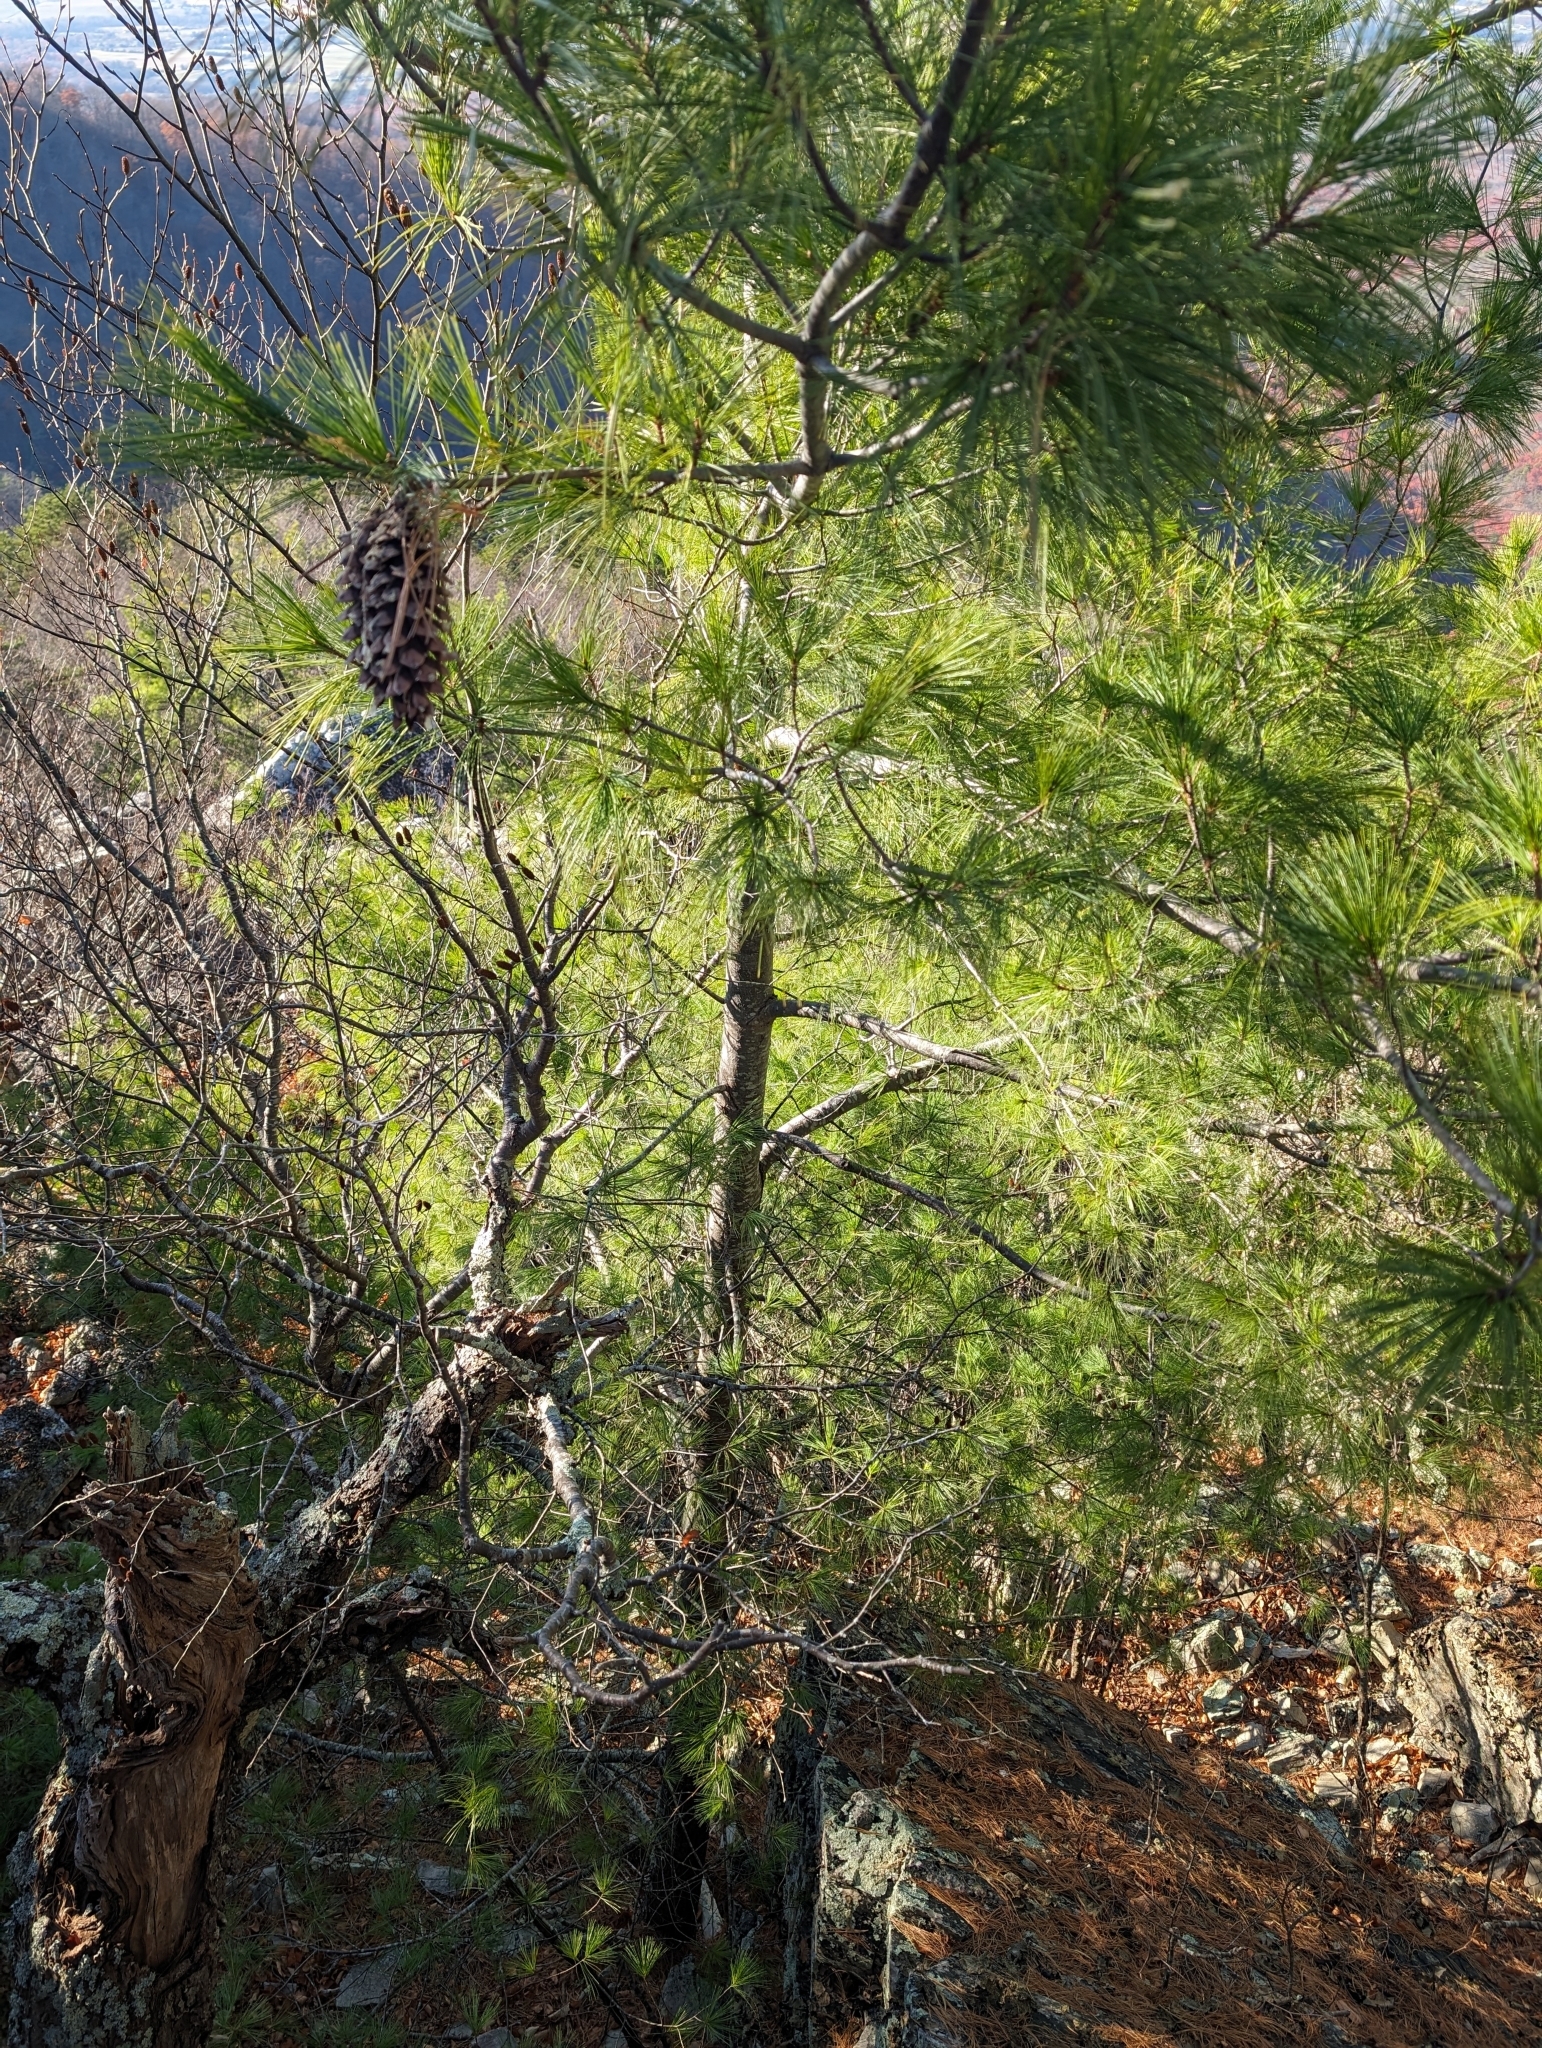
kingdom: Plantae
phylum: Tracheophyta
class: Pinopsida
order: Pinales
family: Pinaceae
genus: Pinus
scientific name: Pinus strobus
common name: Weymouth pine
